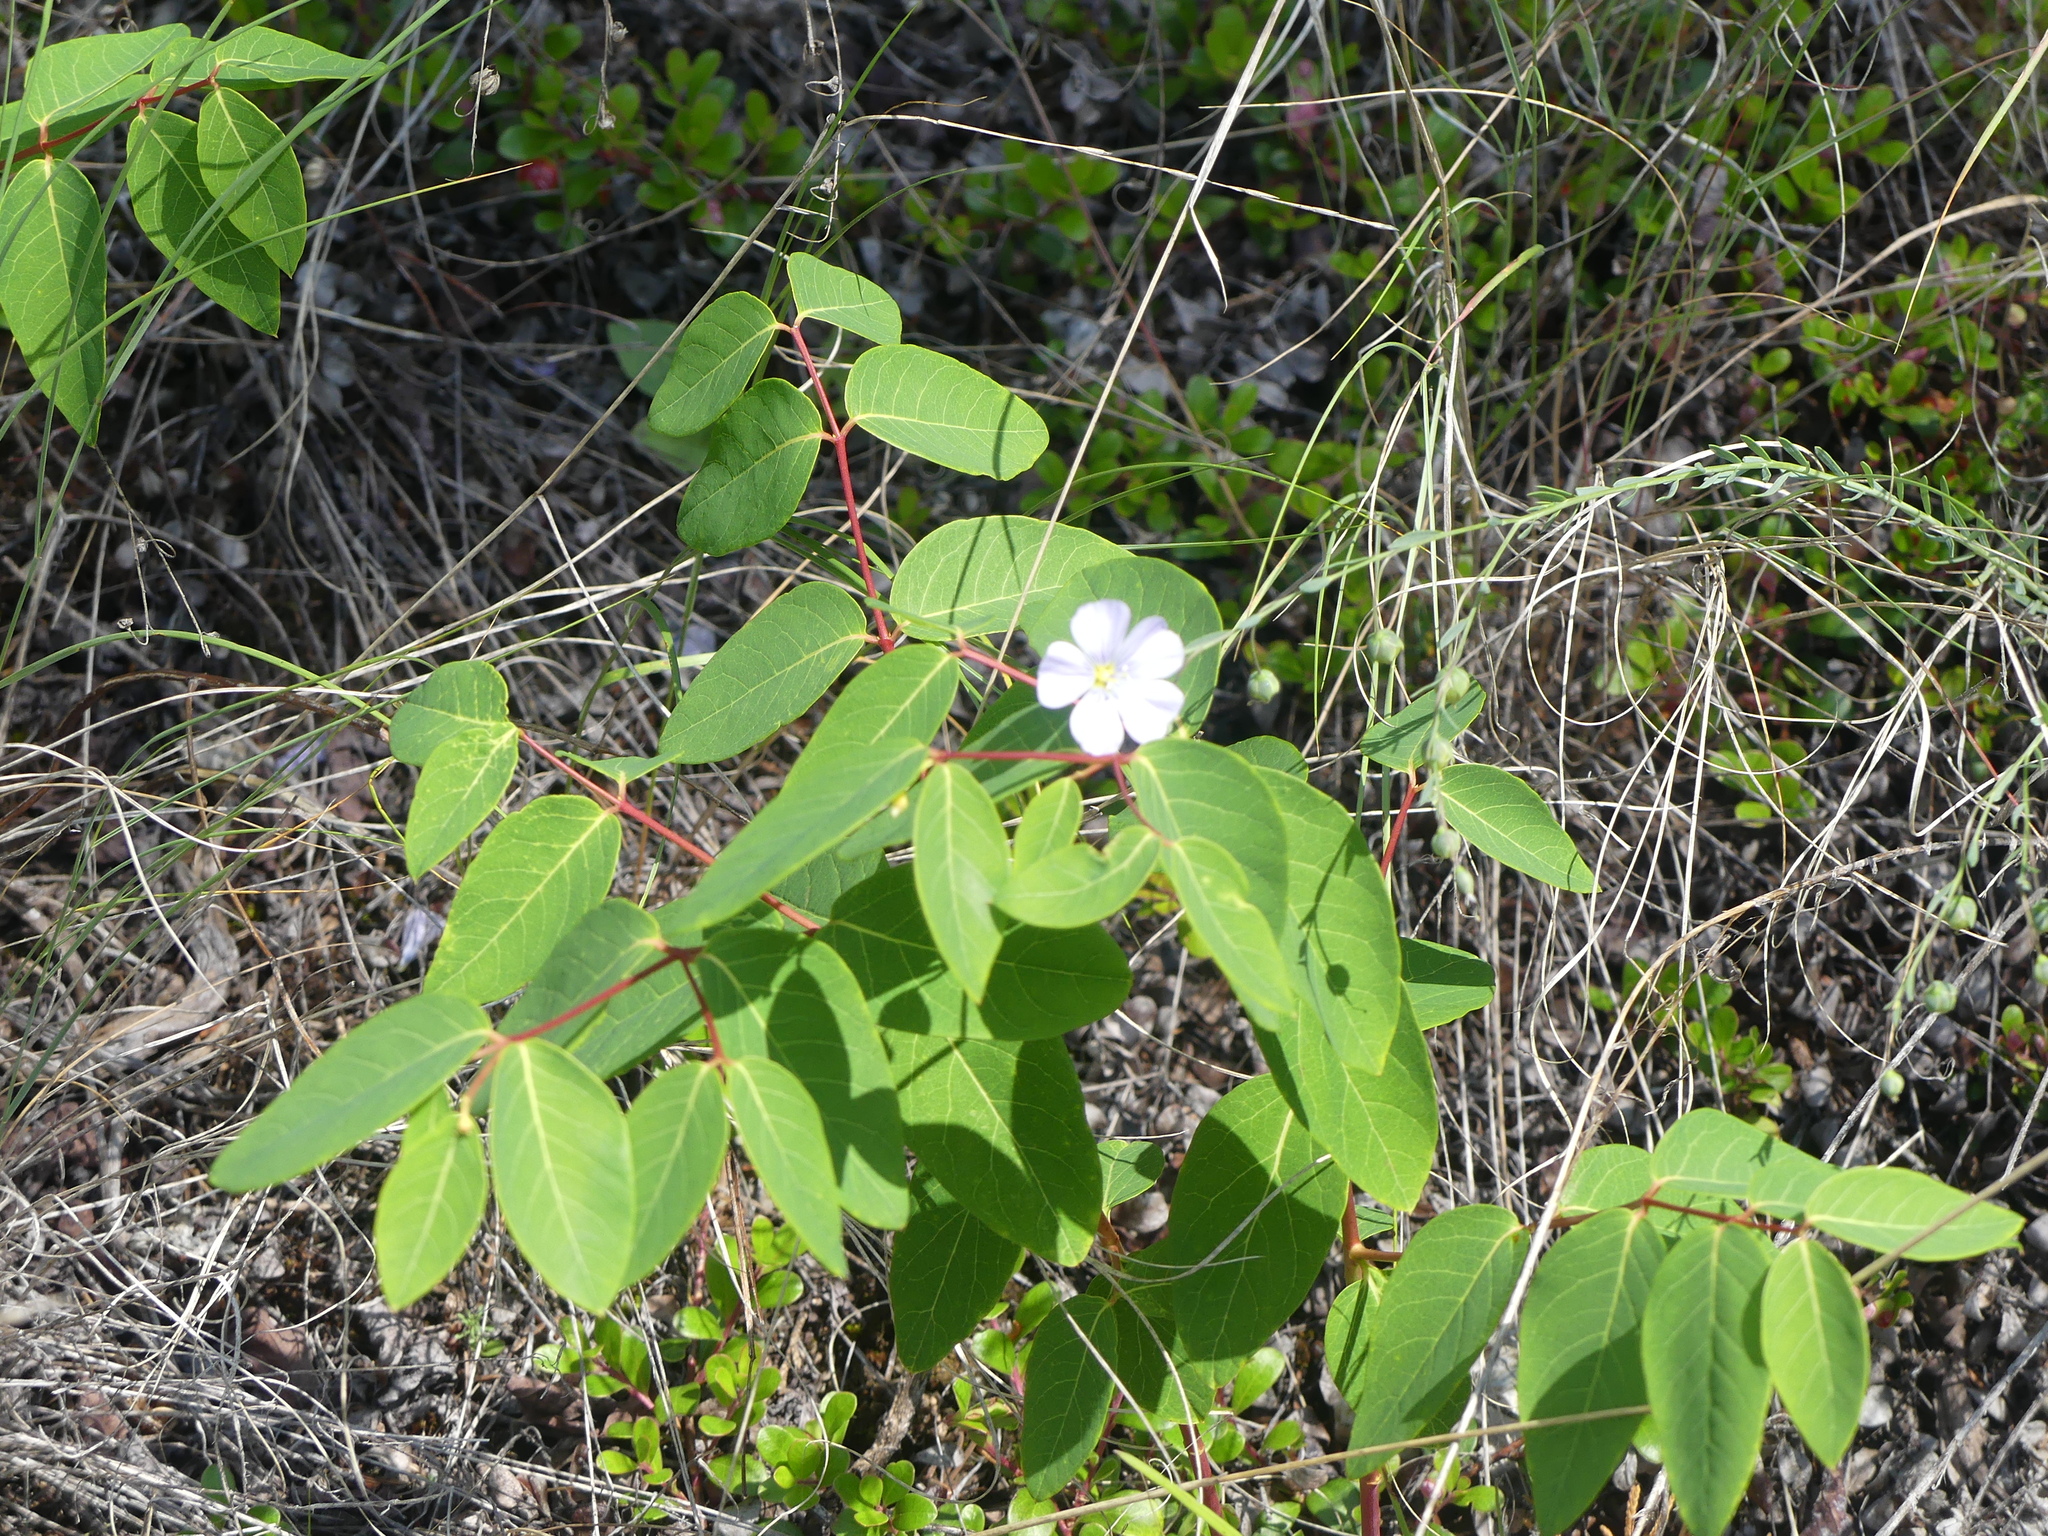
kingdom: Plantae
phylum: Tracheophyta
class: Magnoliopsida
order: Gentianales
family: Apocynaceae
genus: Apocynum
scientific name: Apocynum androsaemifolium
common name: Spreading dogbane
